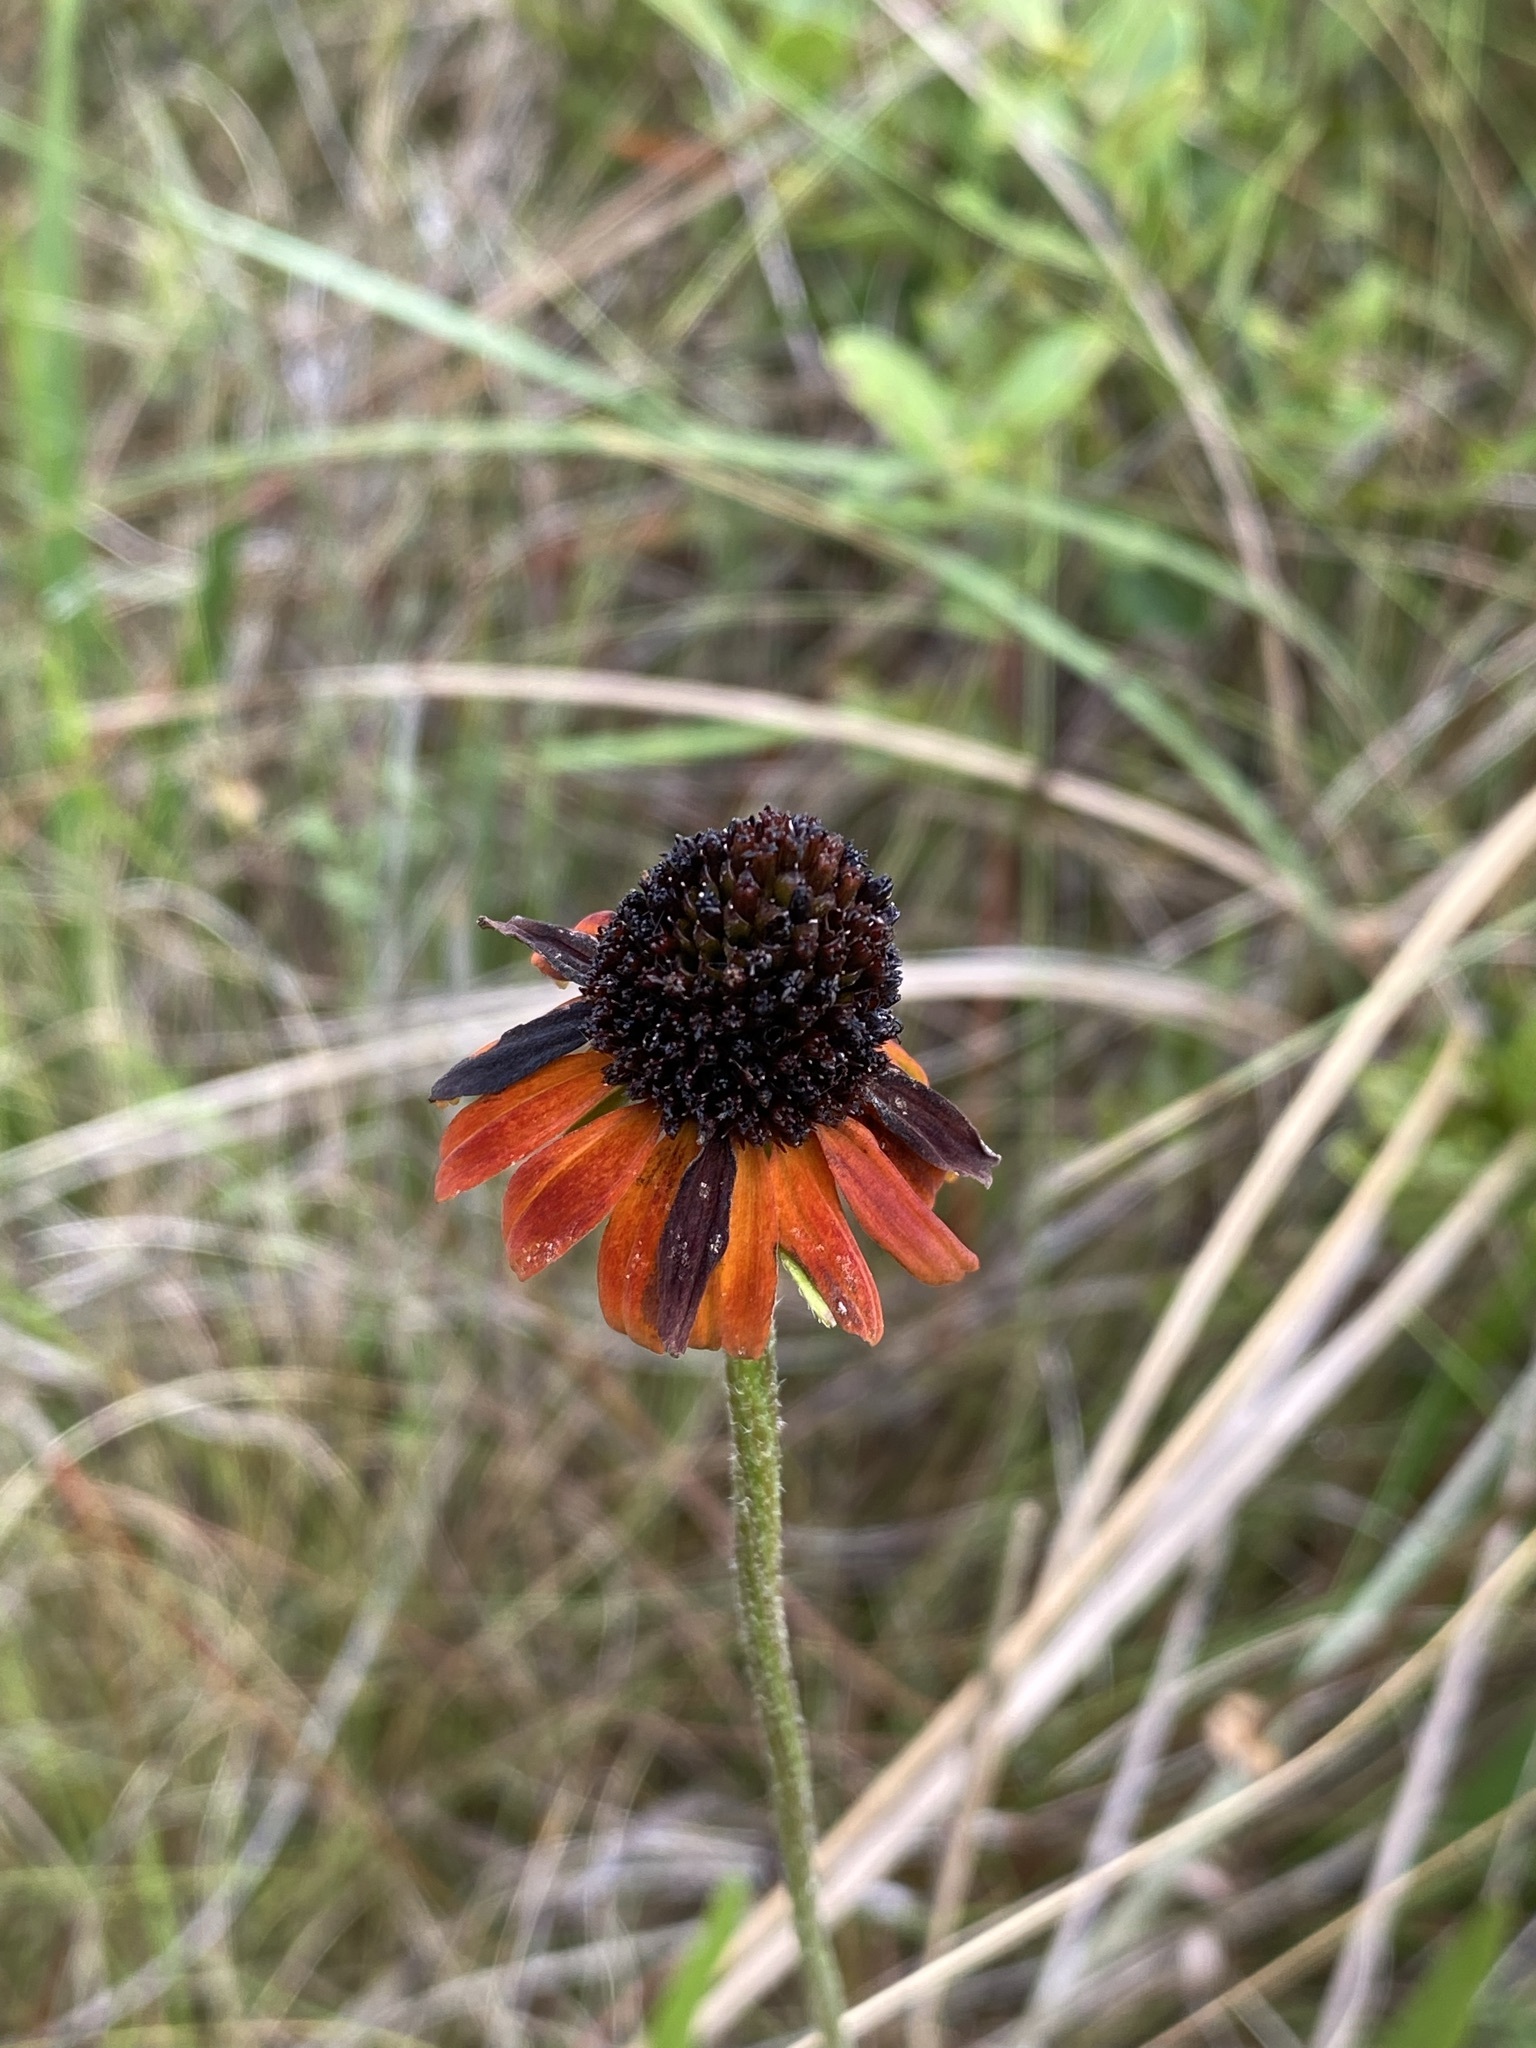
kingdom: Plantae
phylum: Tracheophyta
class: Magnoliopsida
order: Asterales
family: Asteraceae
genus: Rudbeckia
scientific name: Rudbeckia graminifolia
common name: Grass-leaf coneflower
